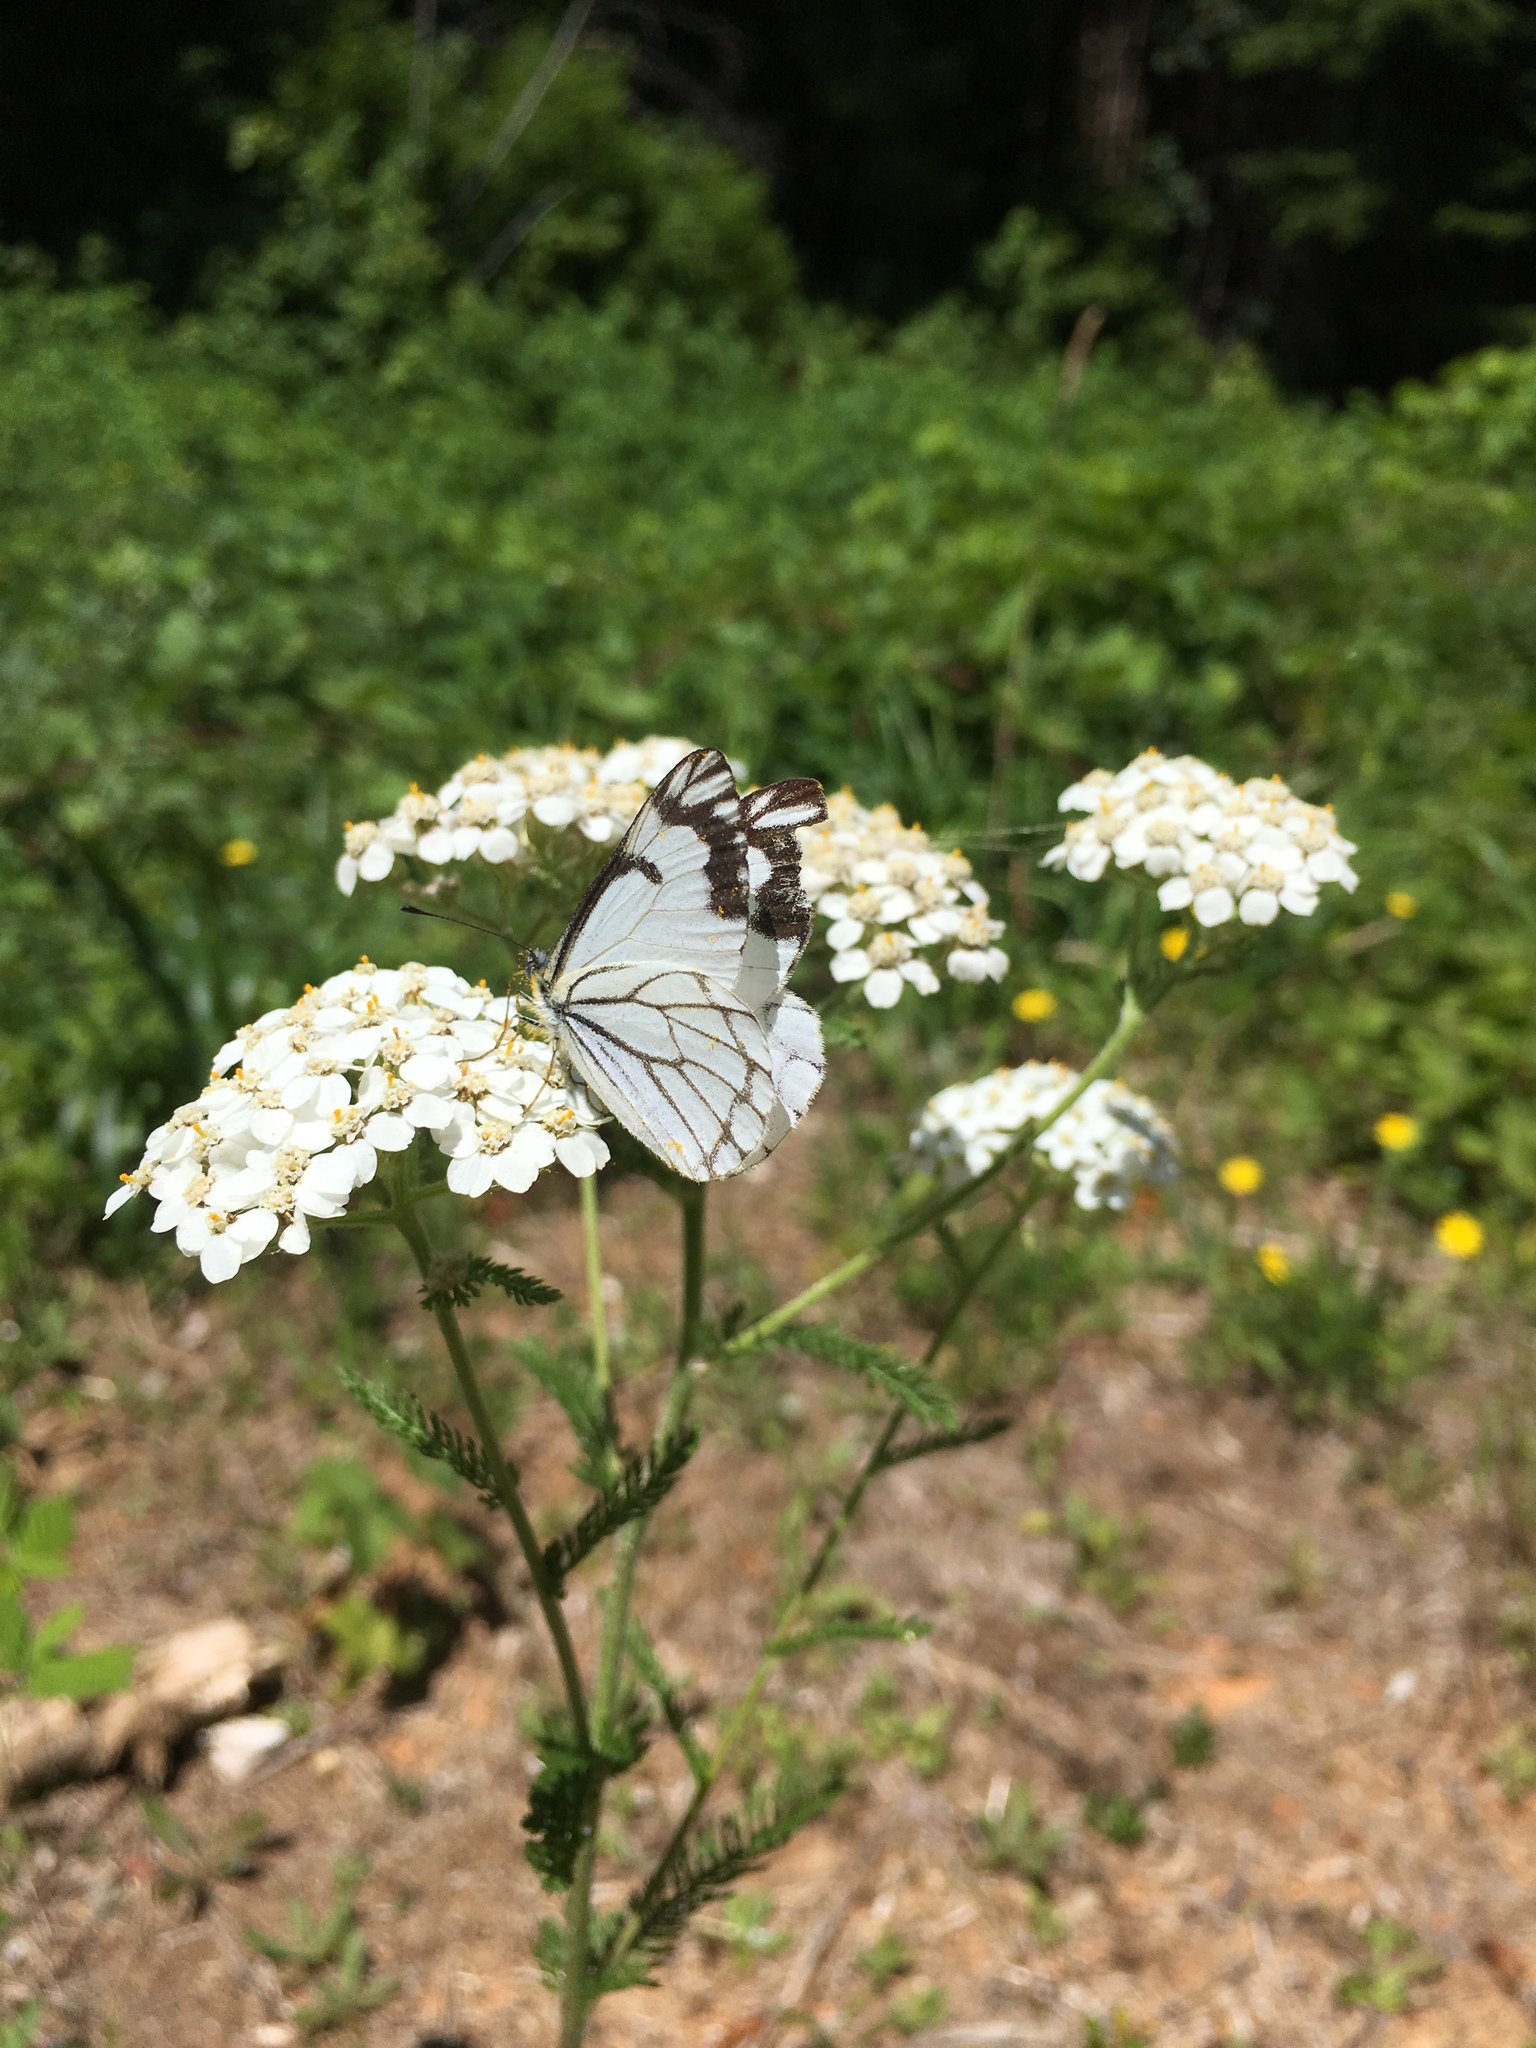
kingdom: Animalia
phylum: Arthropoda
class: Insecta
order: Lepidoptera
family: Pieridae
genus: Neophasia
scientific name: Neophasia menapia
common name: Pine white
